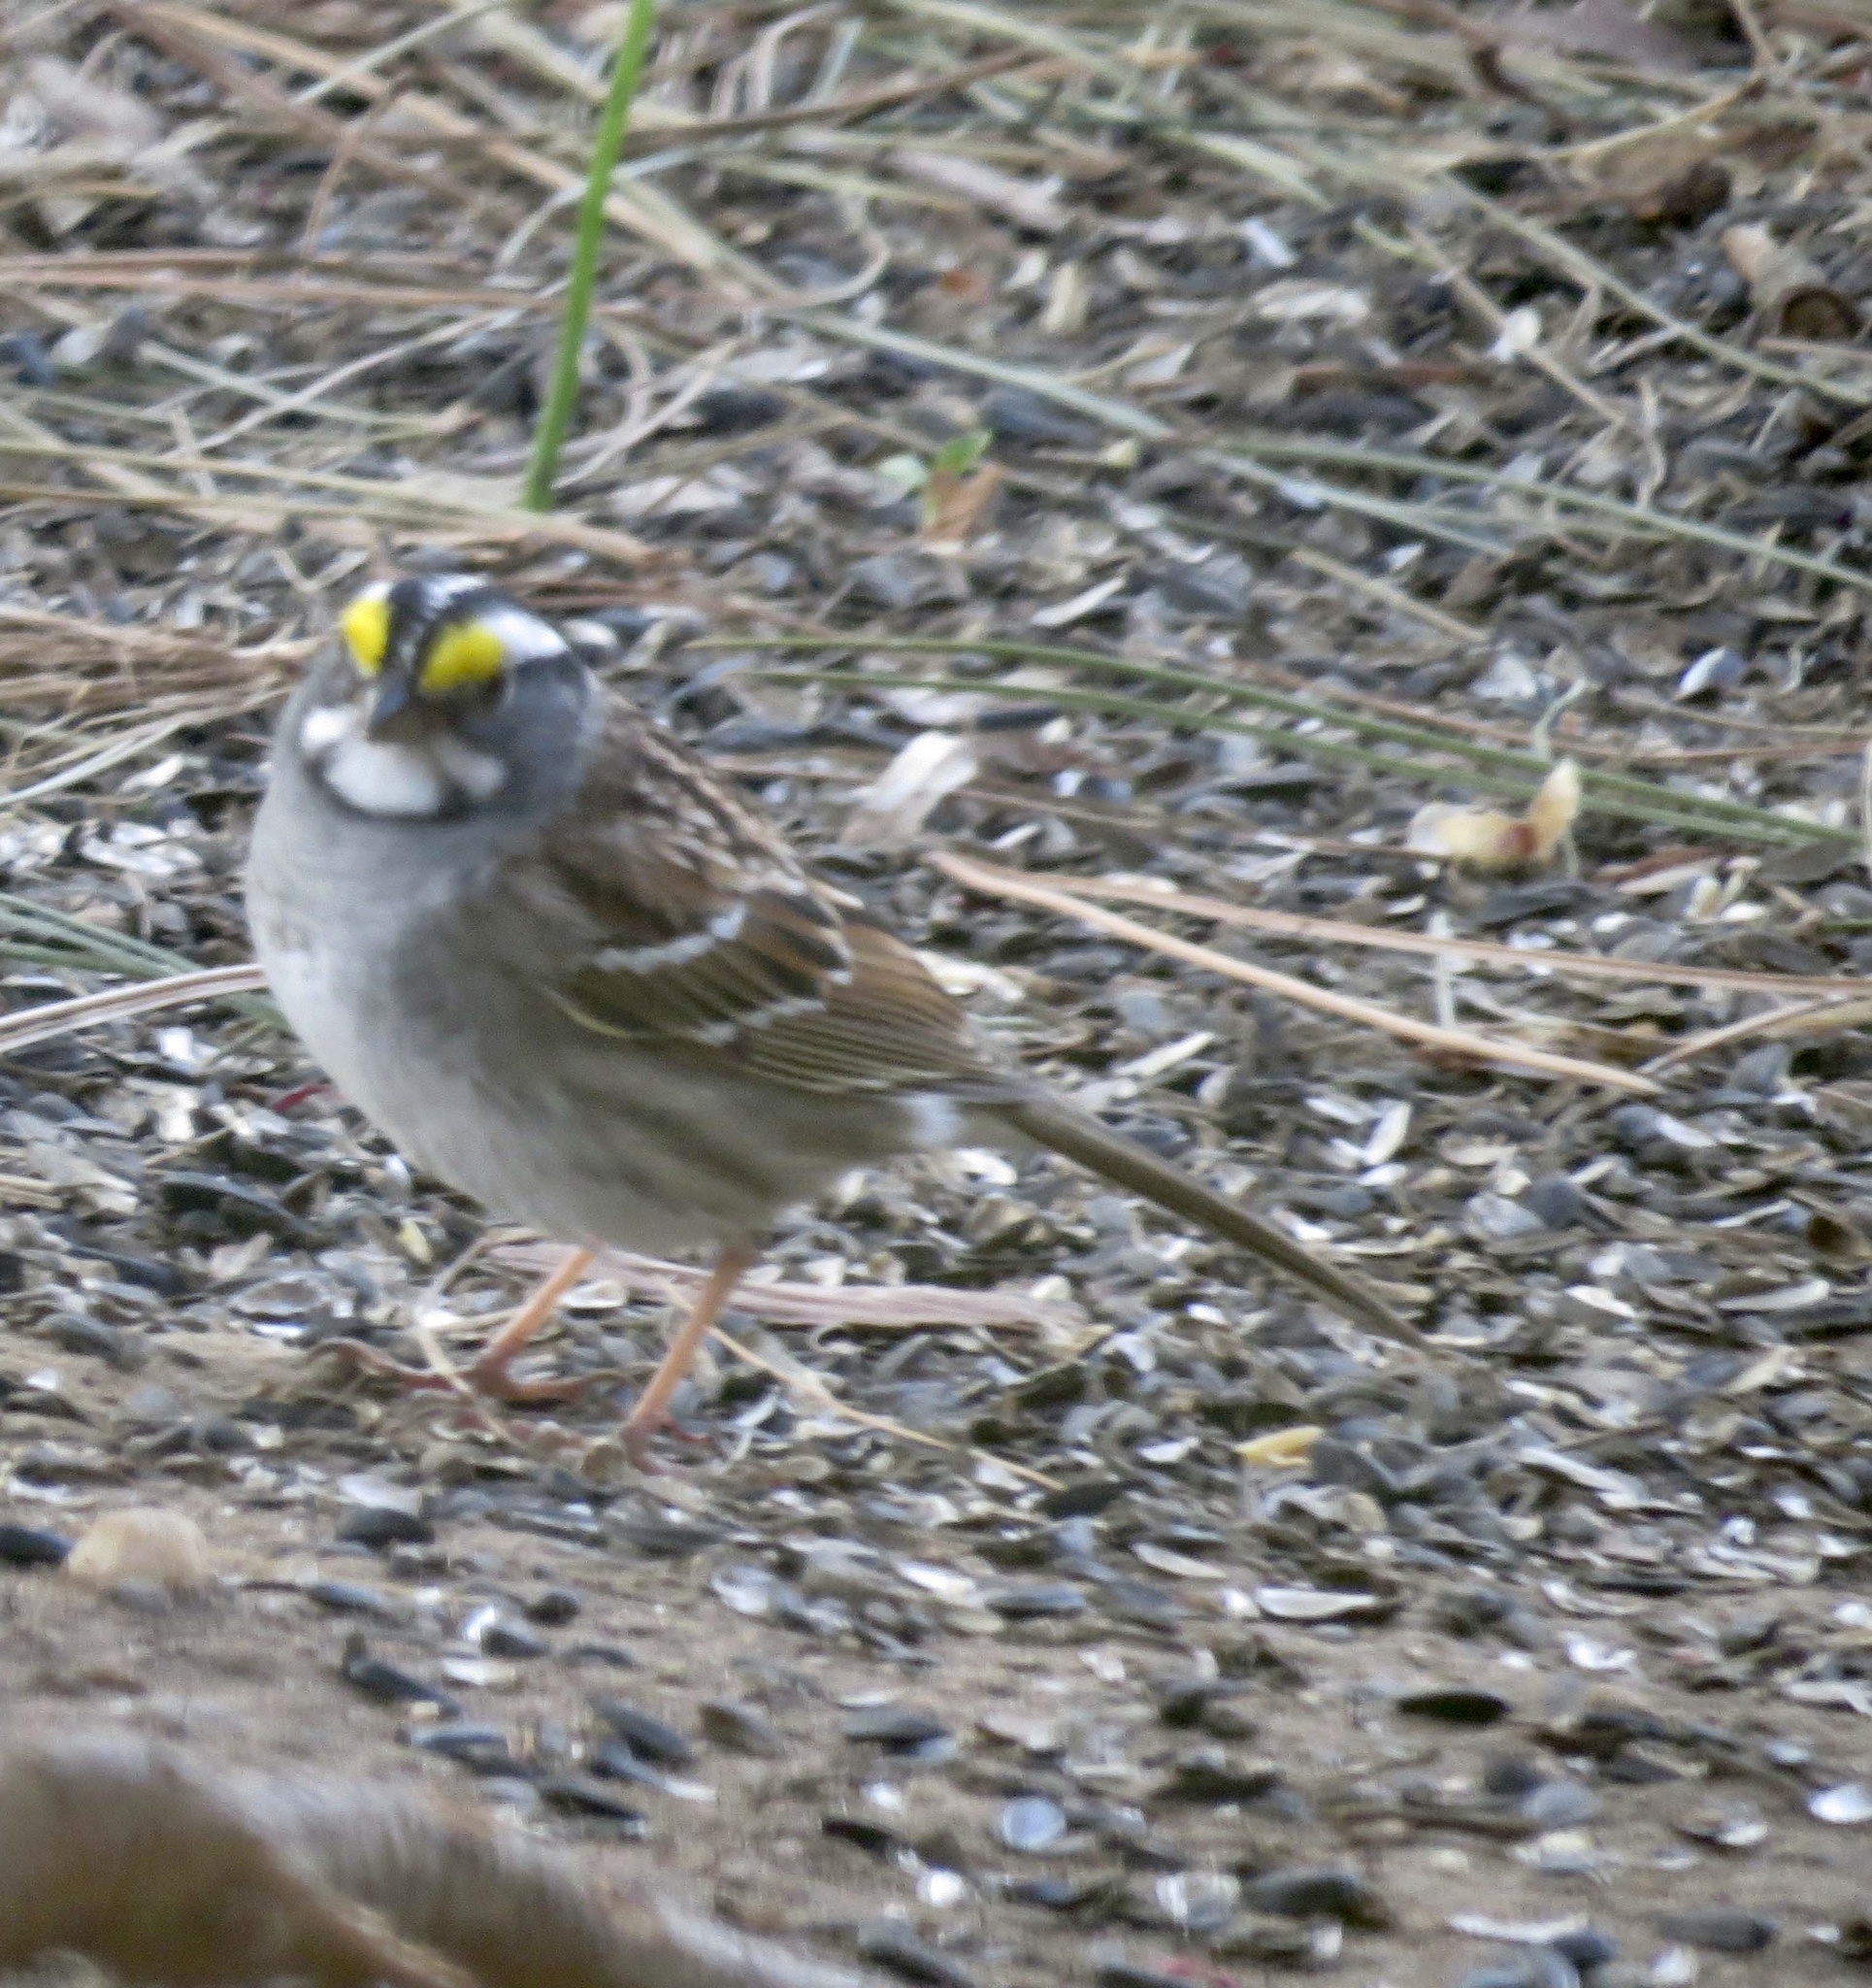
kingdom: Animalia
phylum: Chordata
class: Aves
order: Passeriformes
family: Passerellidae
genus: Zonotrichia
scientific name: Zonotrichia albicollis
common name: White-throated sparrow
